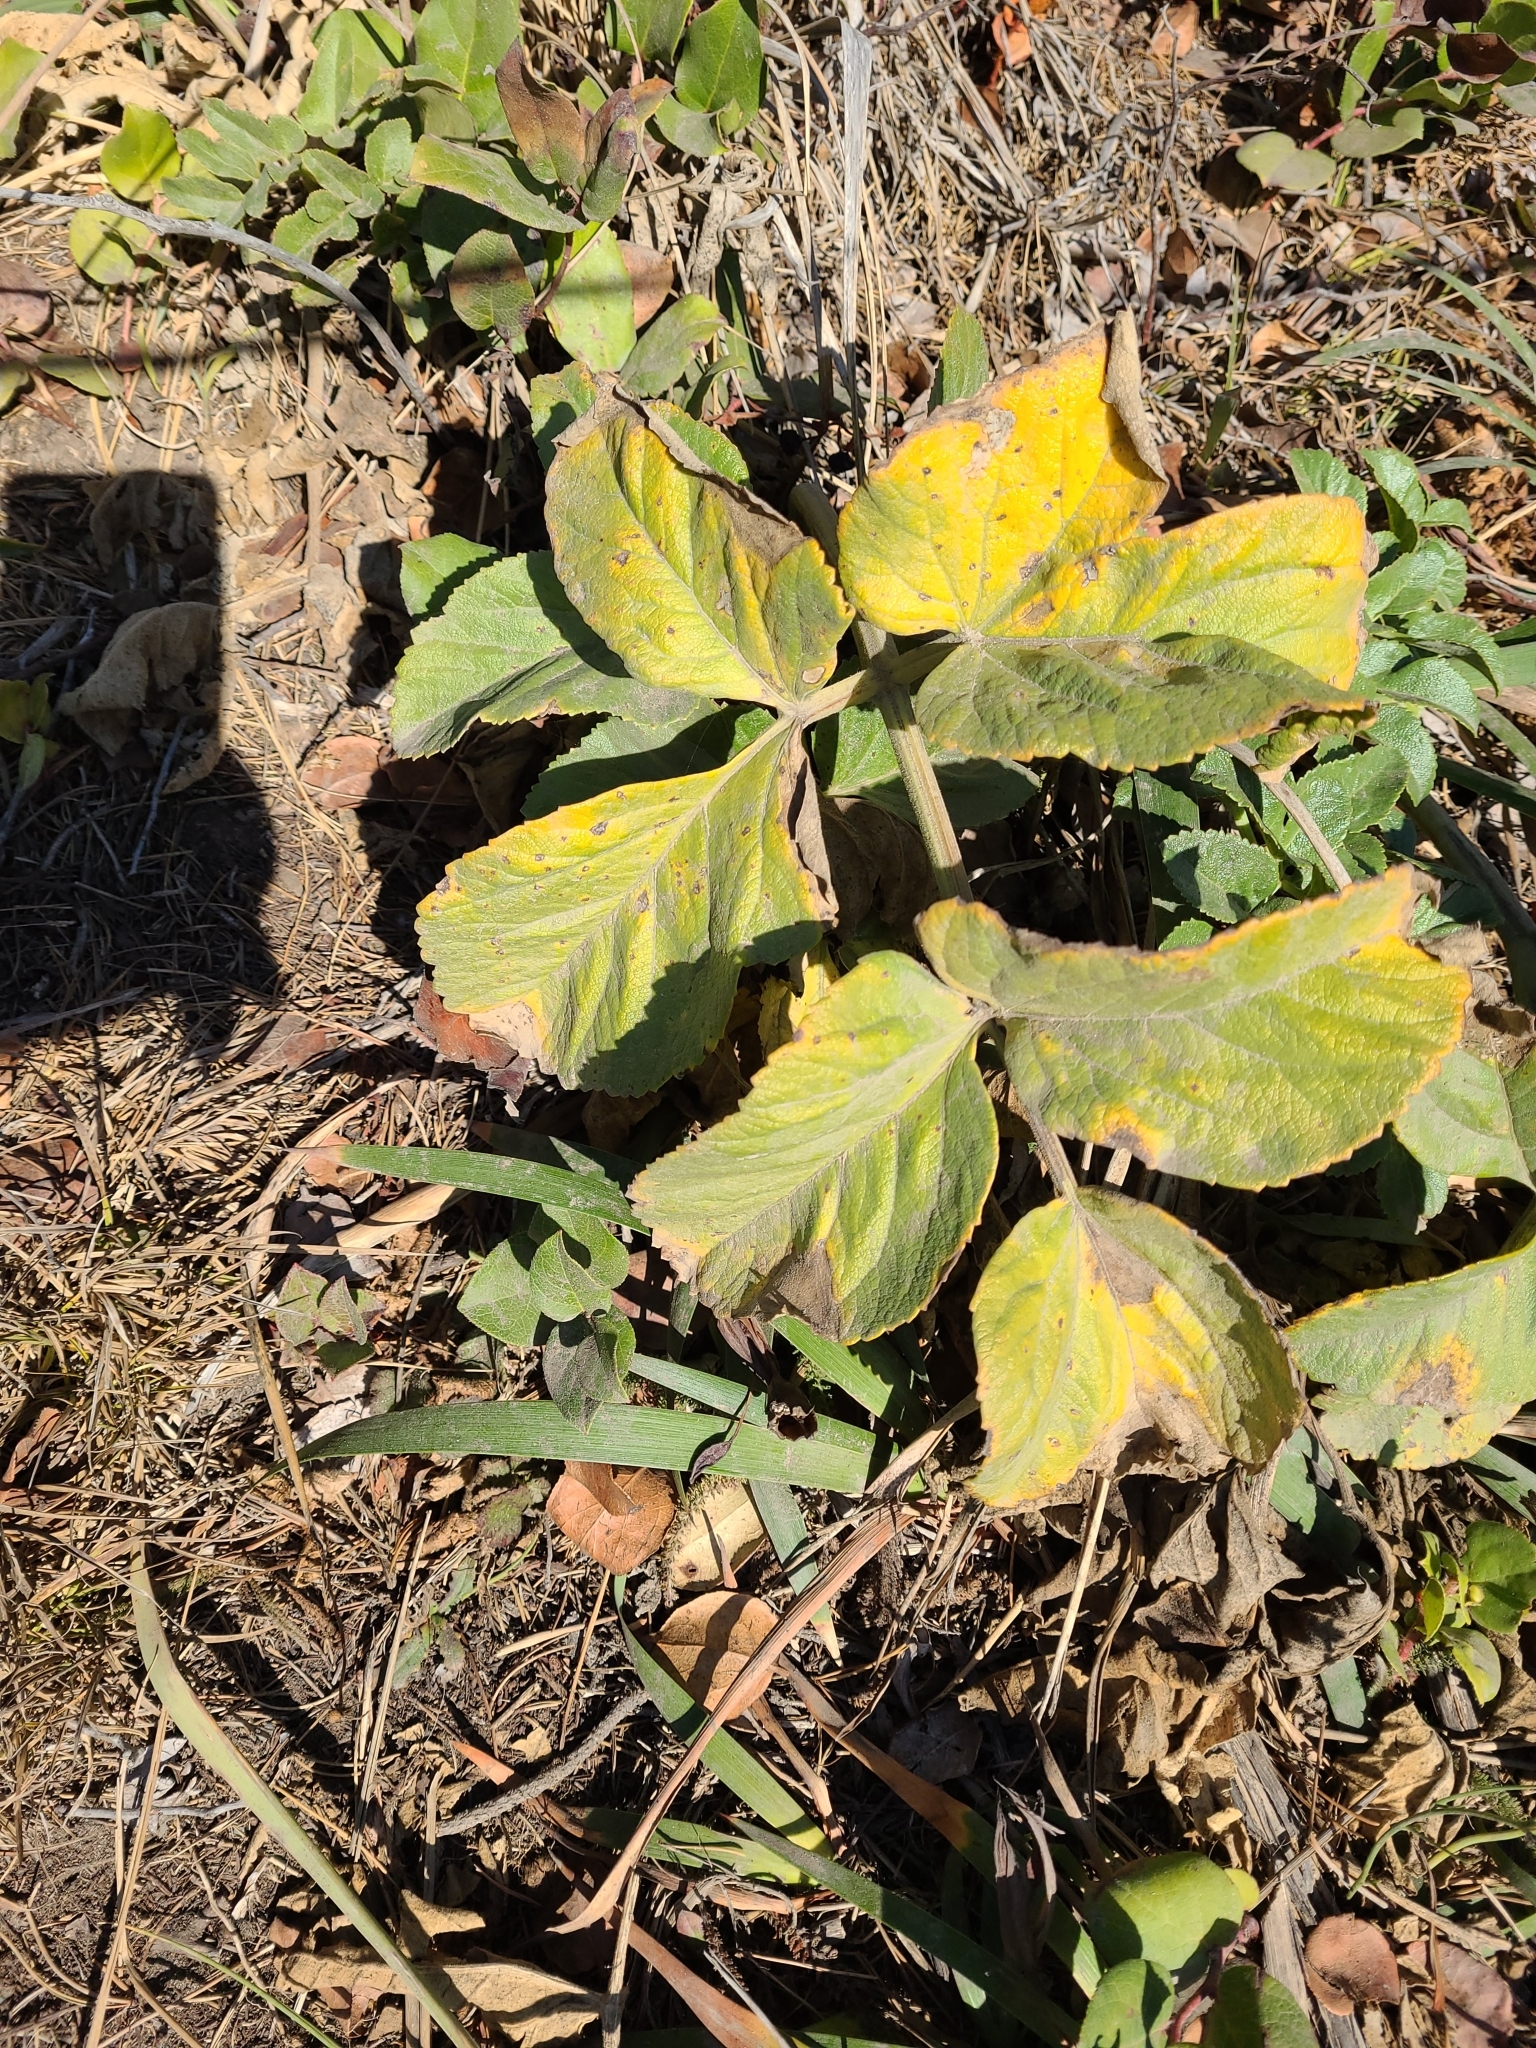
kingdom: Plantae
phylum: Tracheophyta
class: Magnoliopsida
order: Apiales
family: Apiaceae
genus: Angelica
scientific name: Angelica hendersonii
